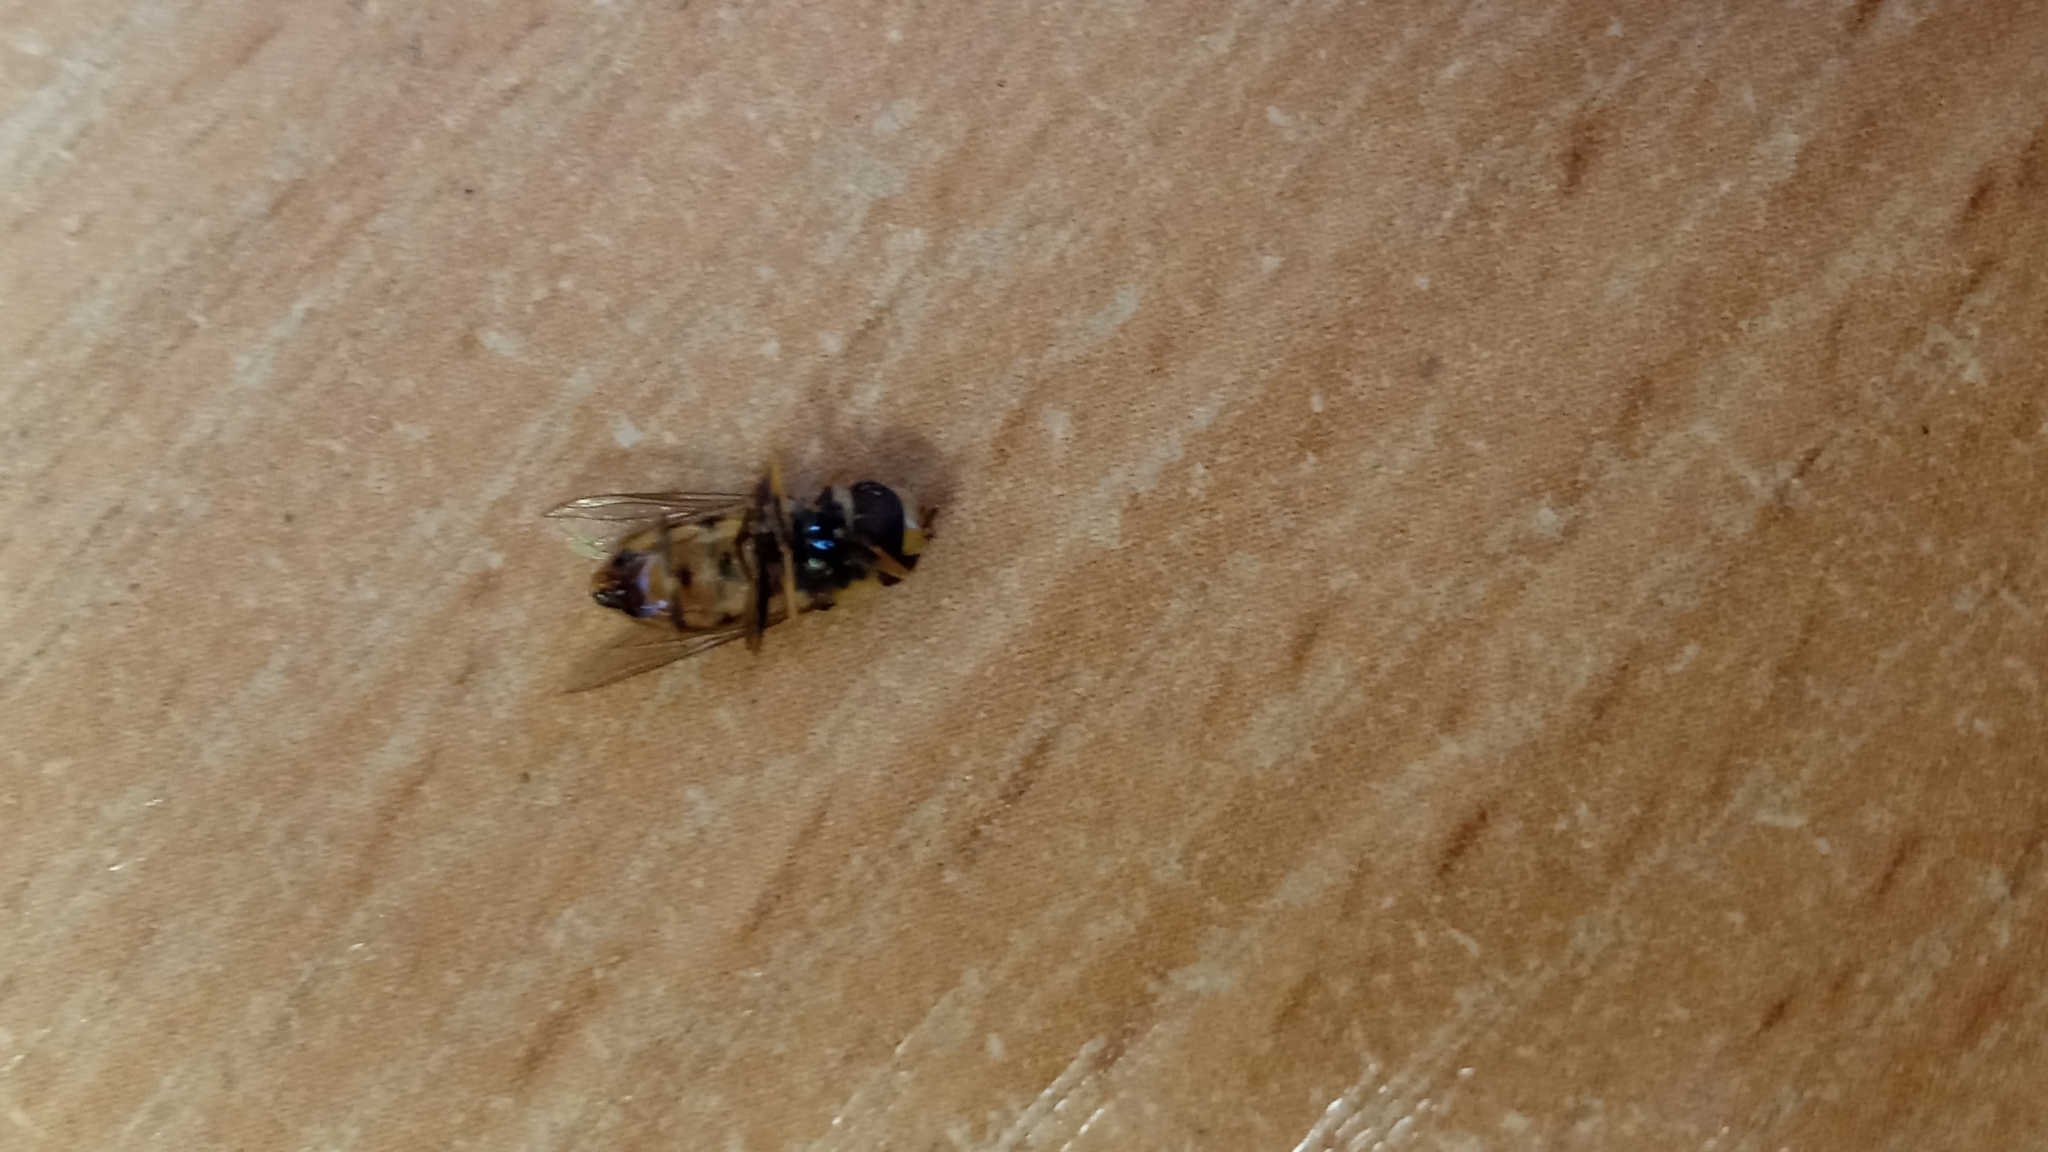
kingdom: Animalia
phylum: Arthropoda
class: Insecta
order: Diptera
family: Syrphidae
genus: Eupeodes
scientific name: Eupeodes corollae
